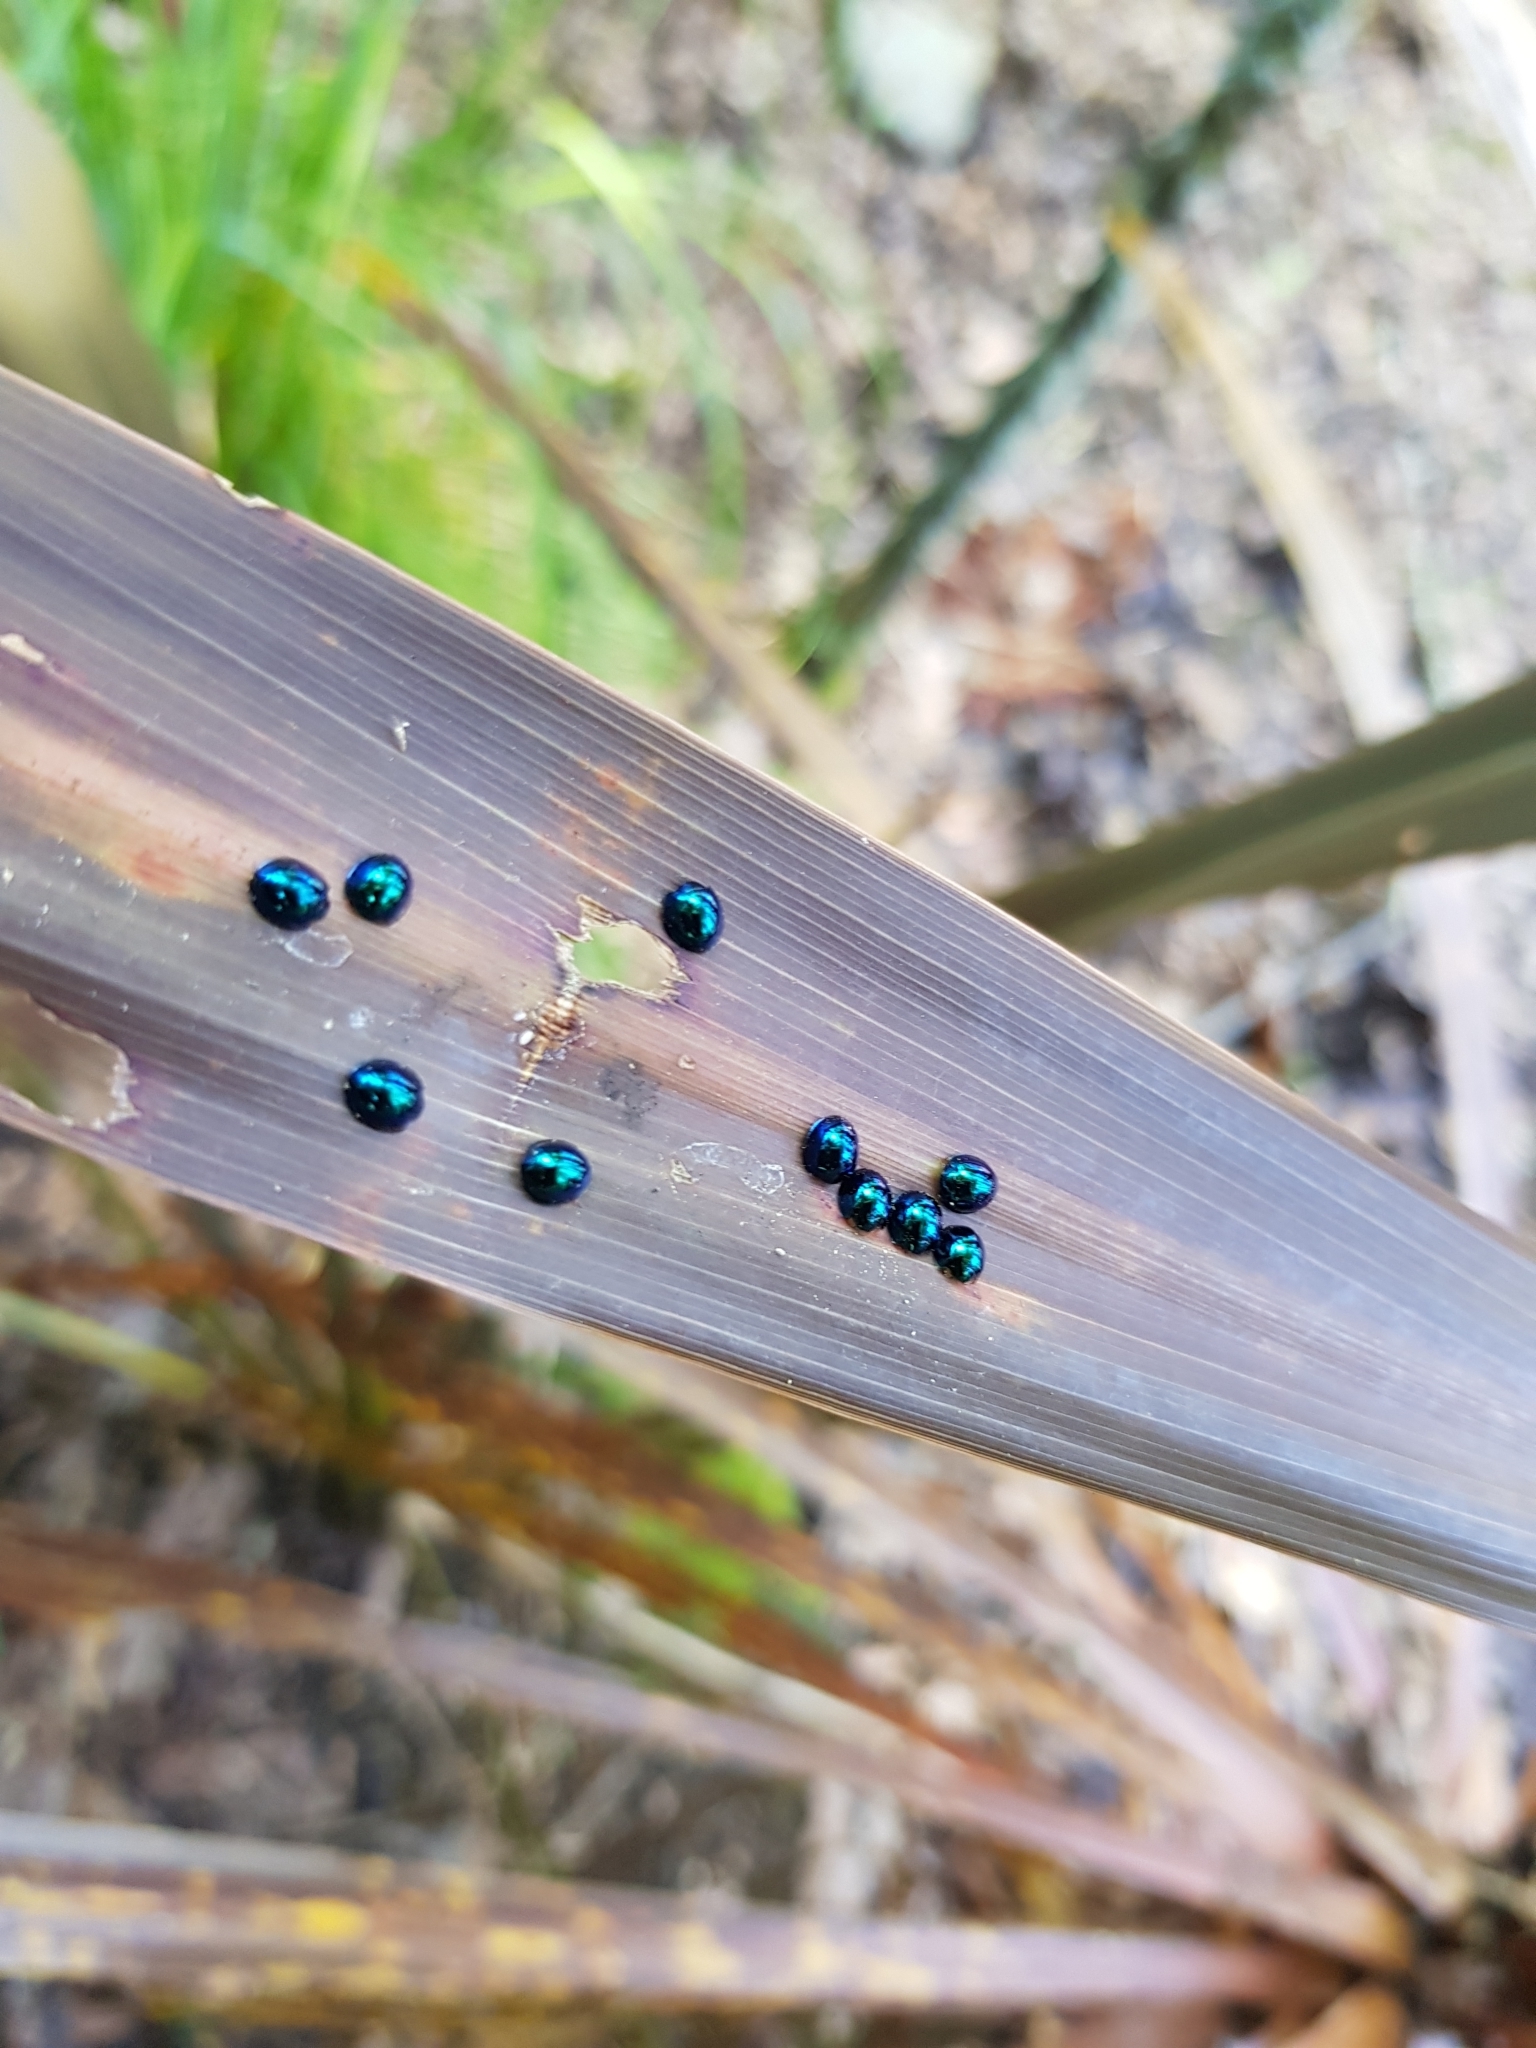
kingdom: Animalia
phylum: Arthropoda
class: Insecta
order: Coleoptera
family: Coccinellidae
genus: Halmus
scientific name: Halmus chalybeus
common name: Steel blue ladybird beetle
